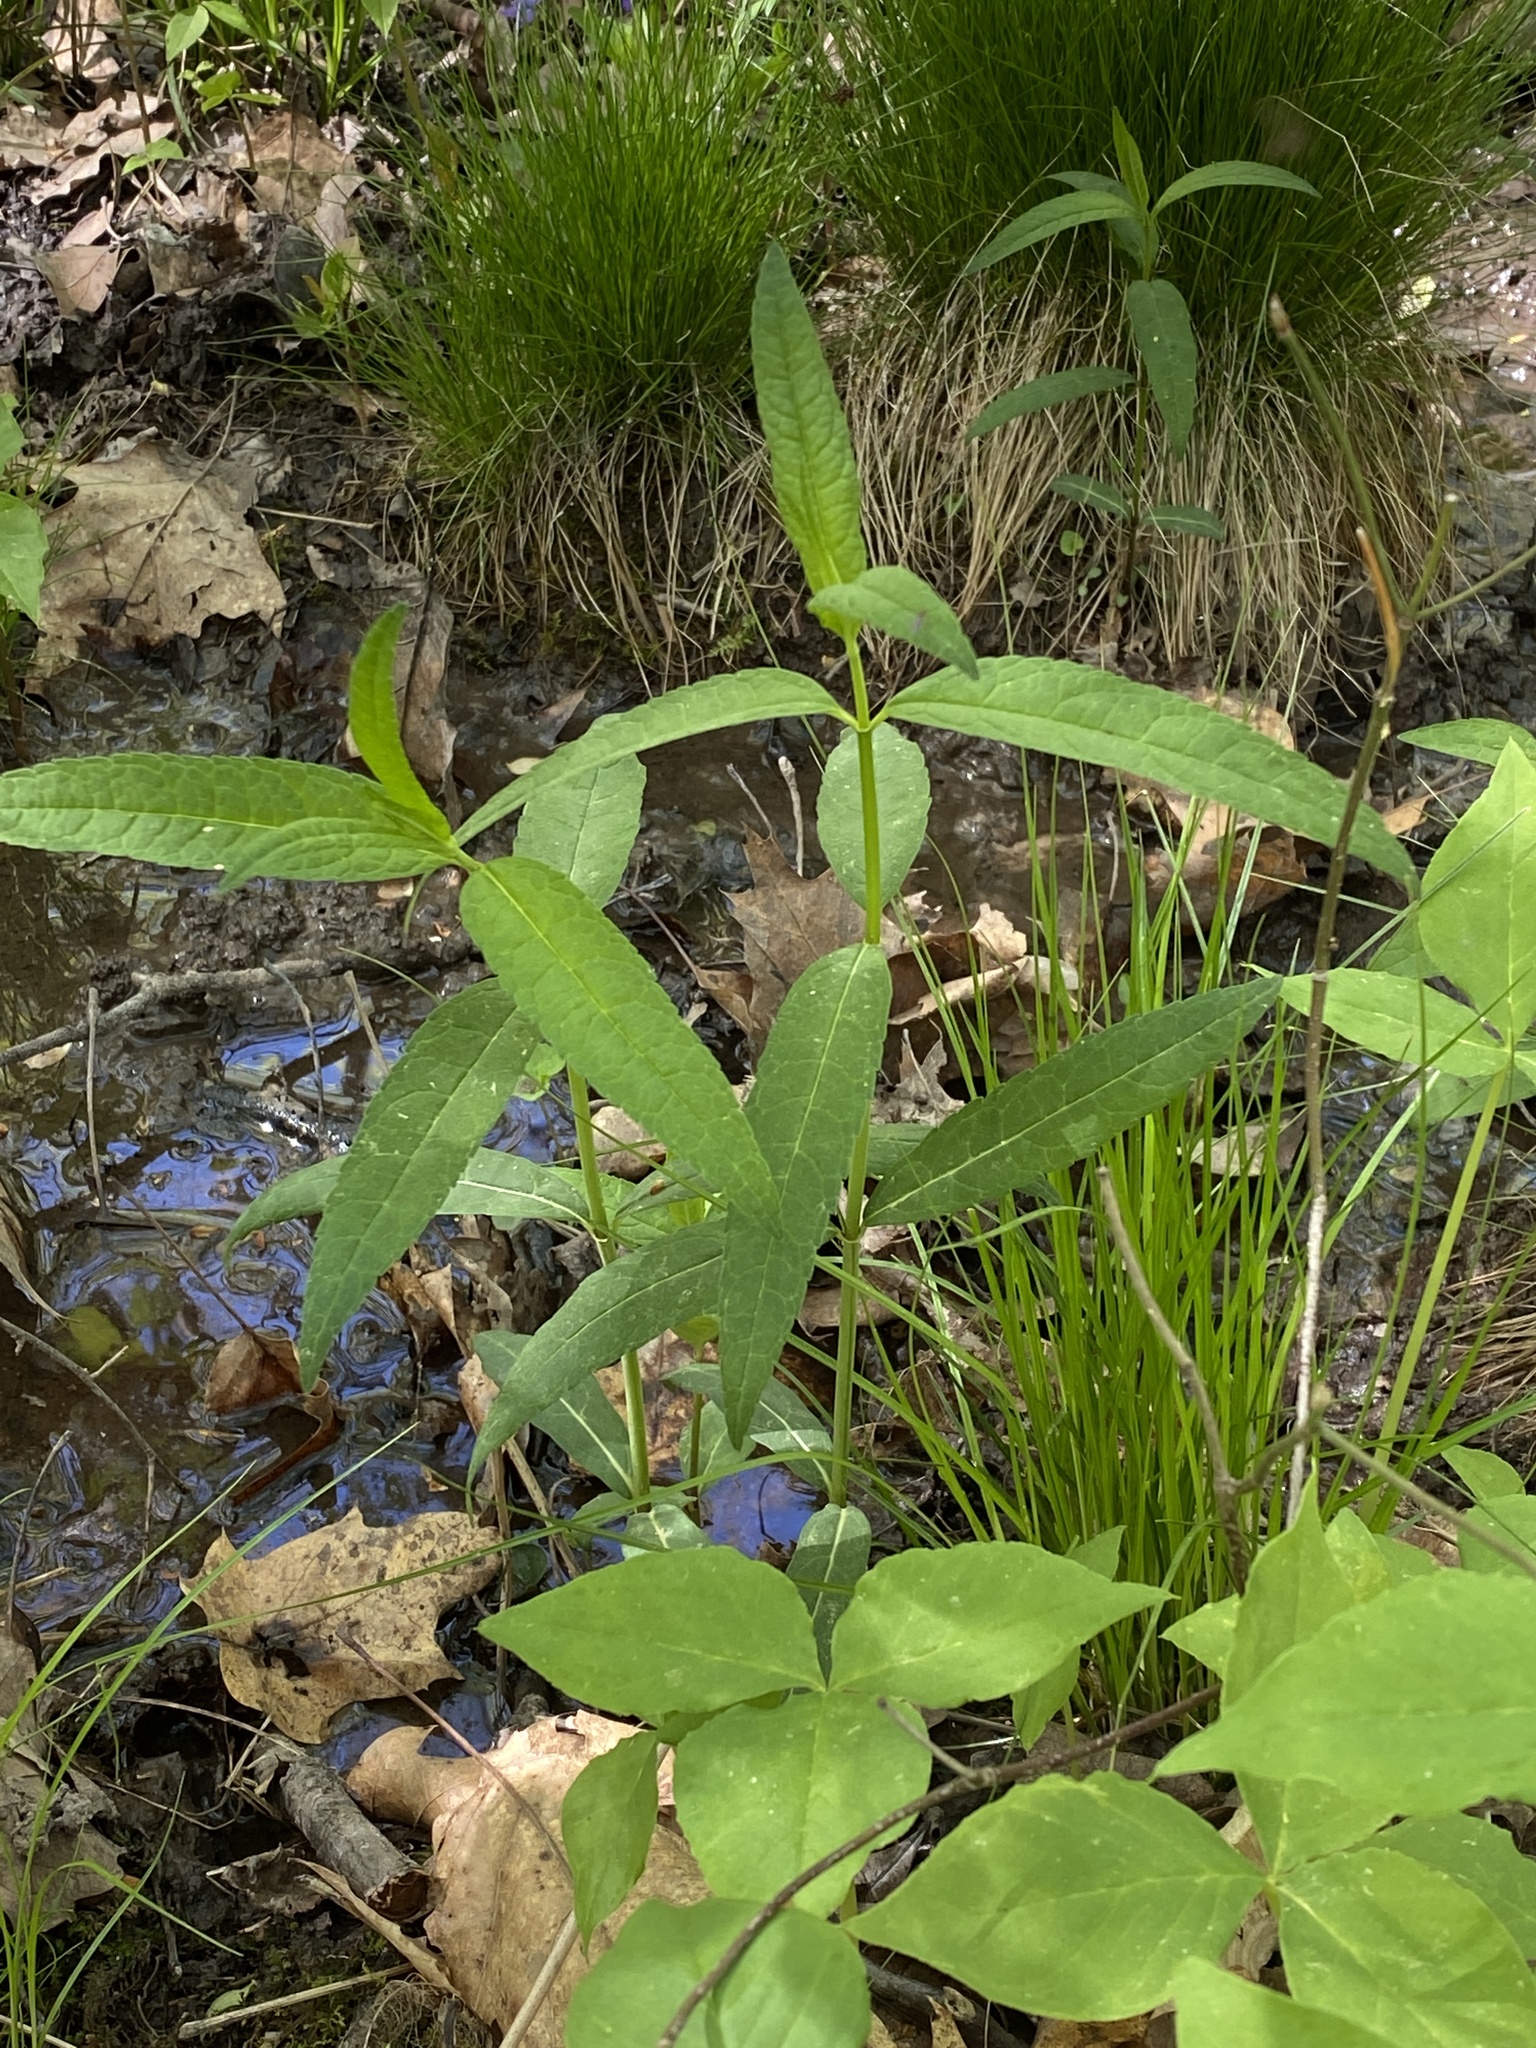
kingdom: Plantae
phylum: Tracheophyta
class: Magnoliopsida
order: Lamiales
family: Plantaginaceae
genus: Chelone
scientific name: Chelone glabra
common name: Snakehead
